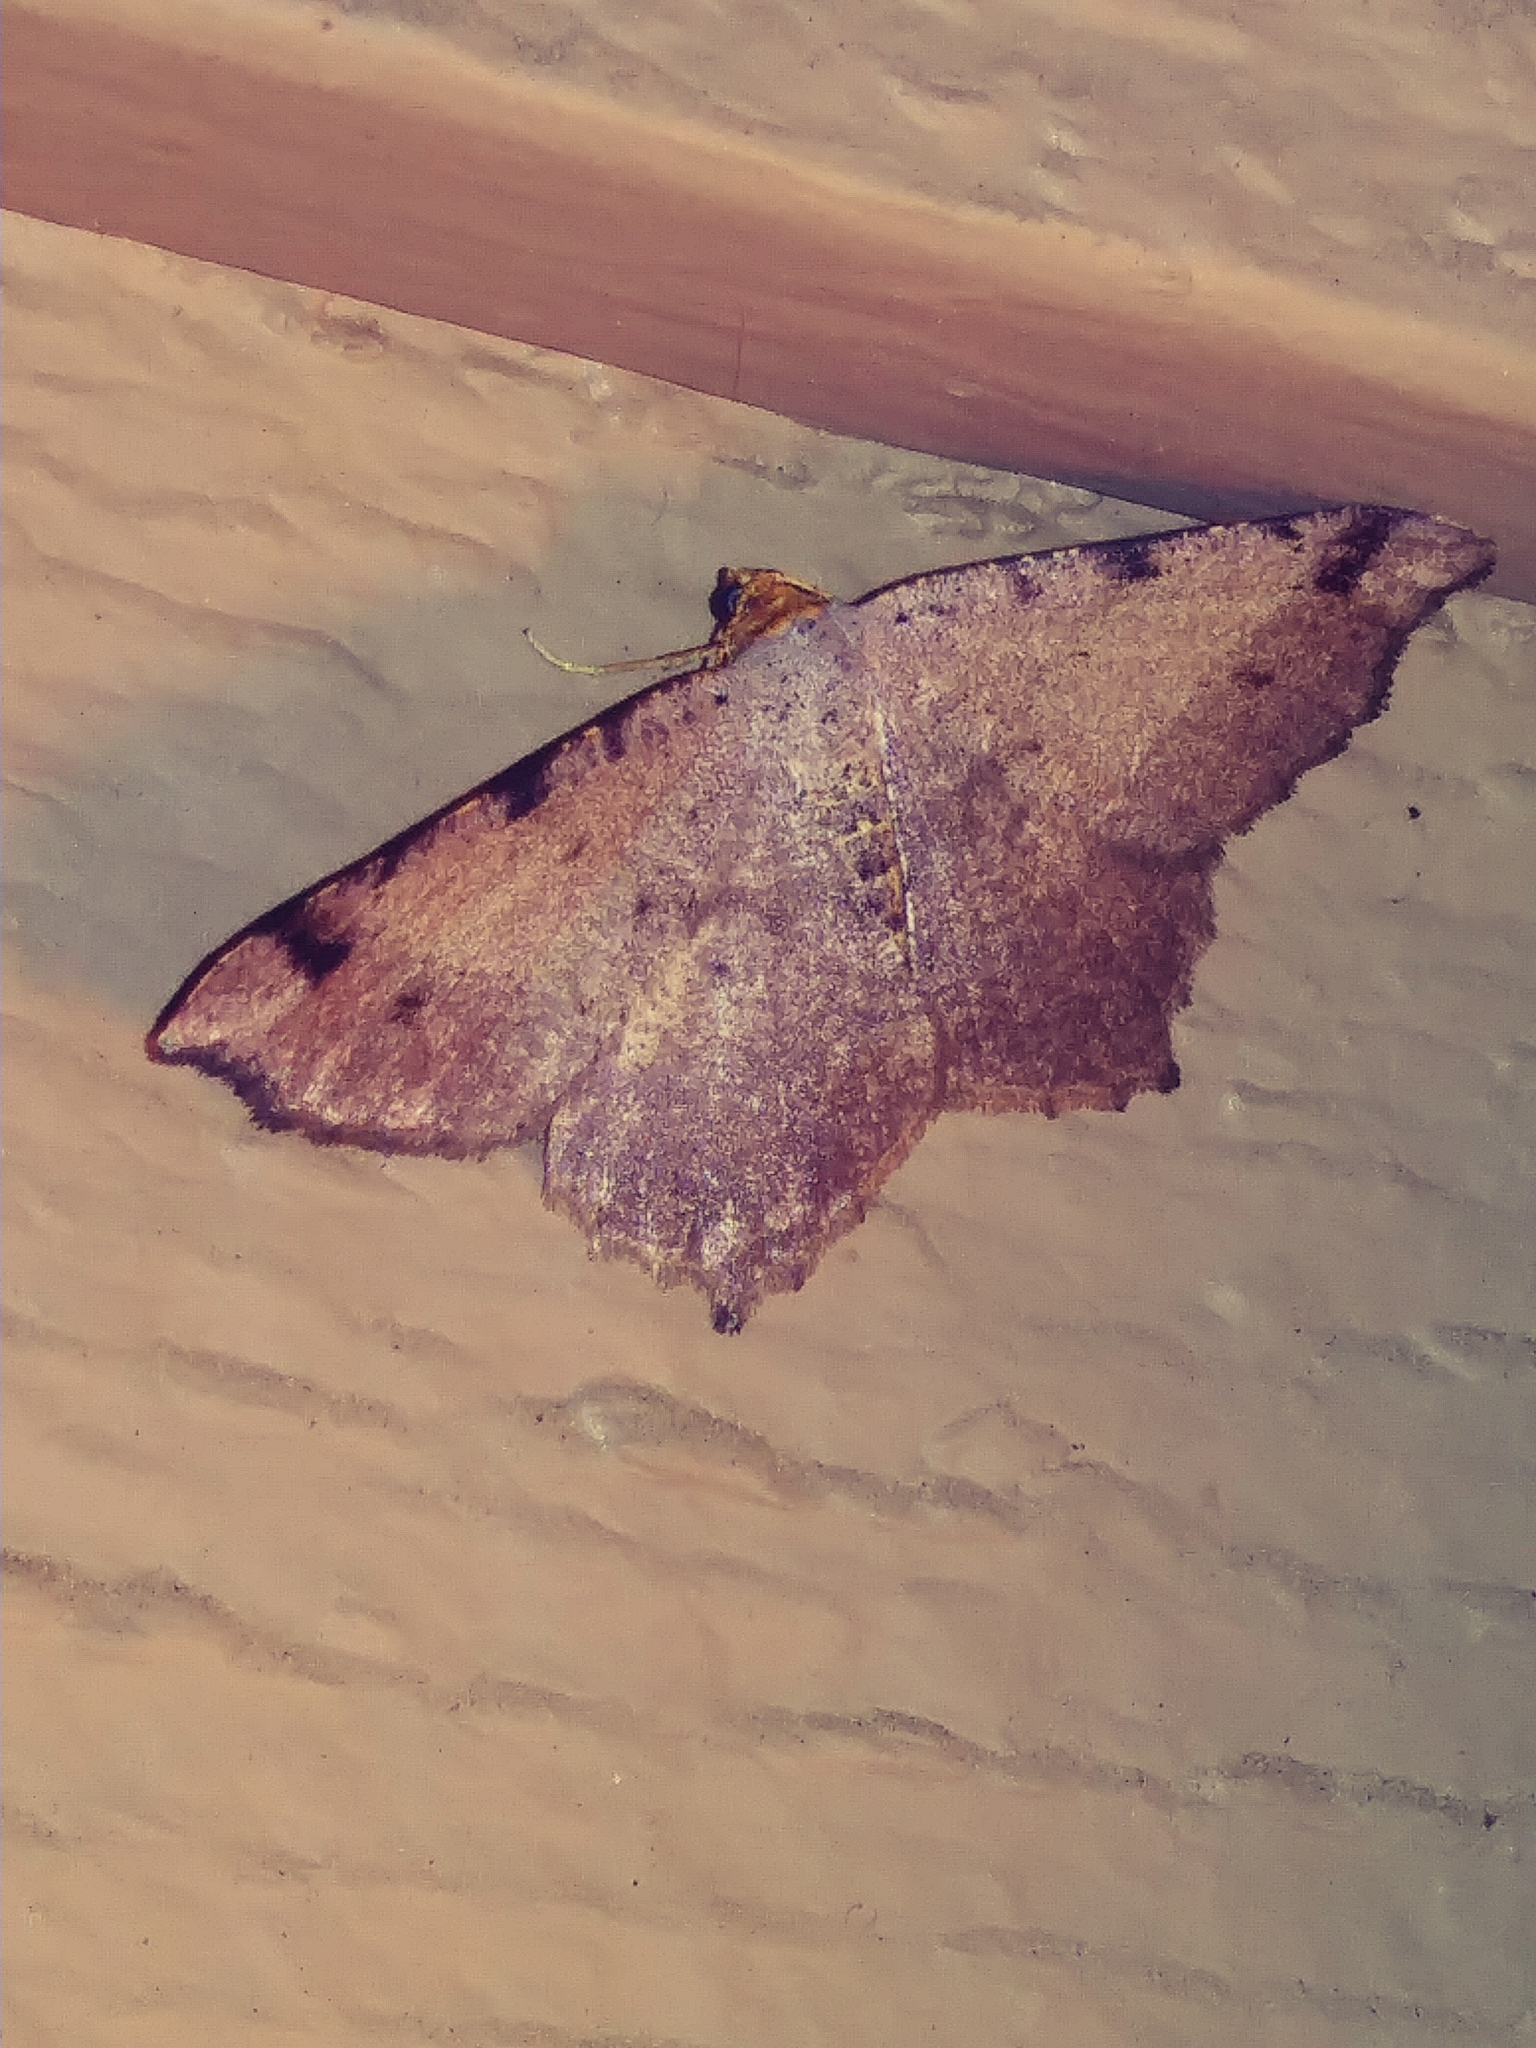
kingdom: Animalia
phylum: Arthropoda
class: Insecta
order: Lepidoptera
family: Geometridae
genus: Macaria
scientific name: Macaria bicolorata
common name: Dingy angle
